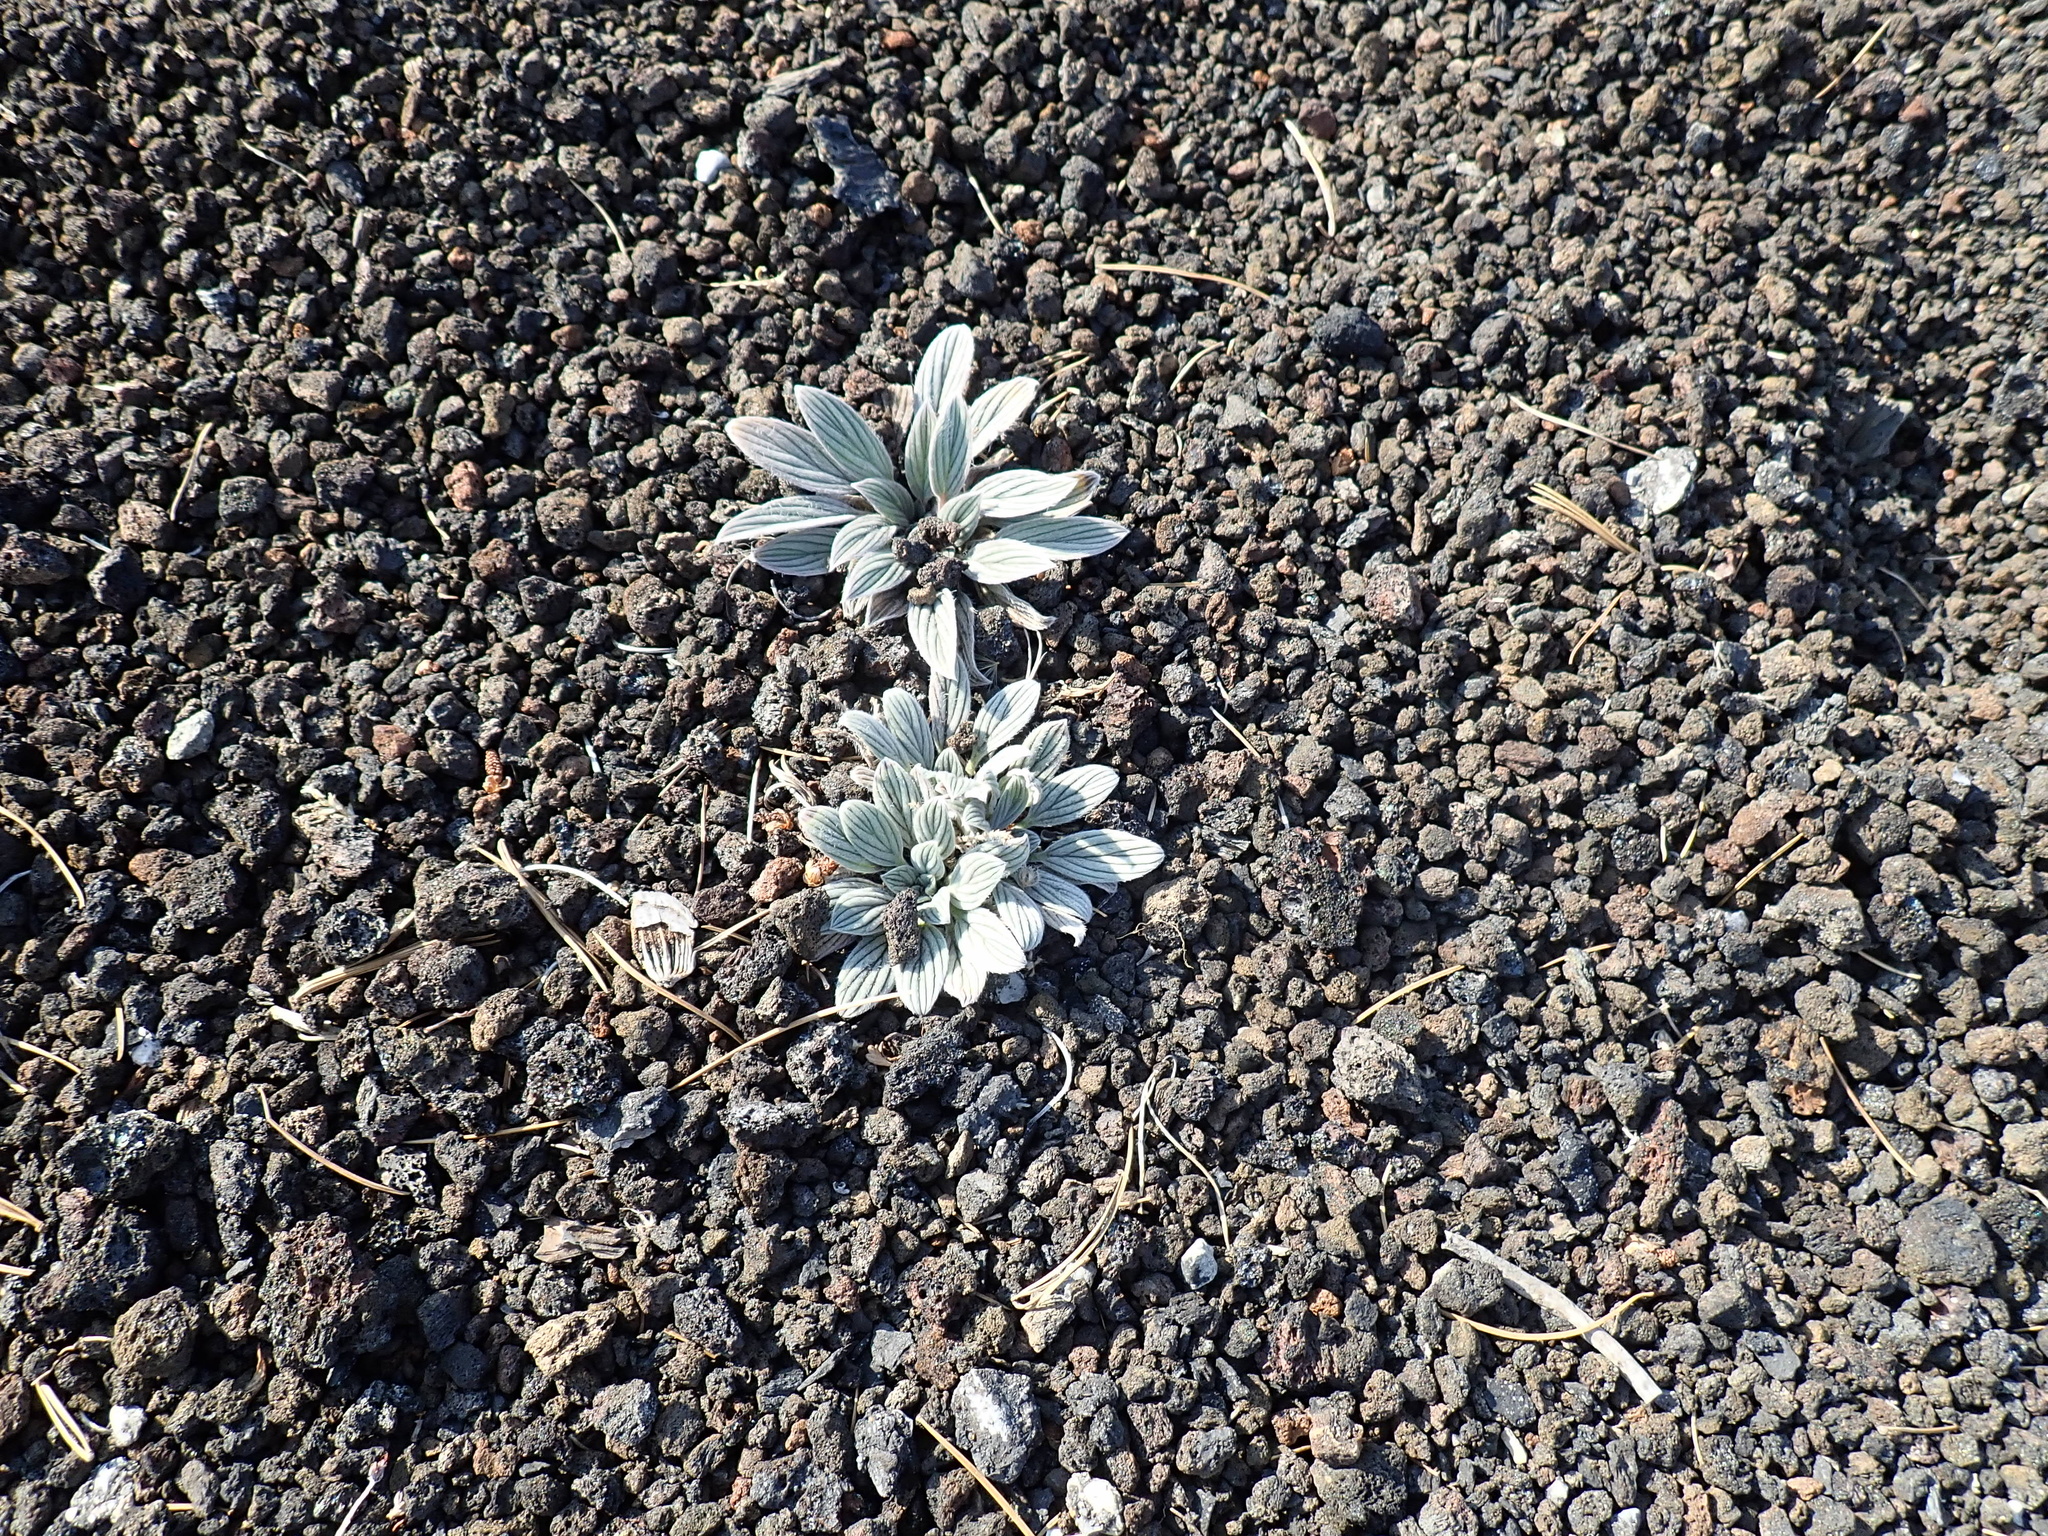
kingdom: Plantae
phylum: Tracheophyta
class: Magnoliopsida
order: Boraginales
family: Hydrophyllaceae
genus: Phacelia
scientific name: Phacelia hastata
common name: Silver-leaved phacelia
